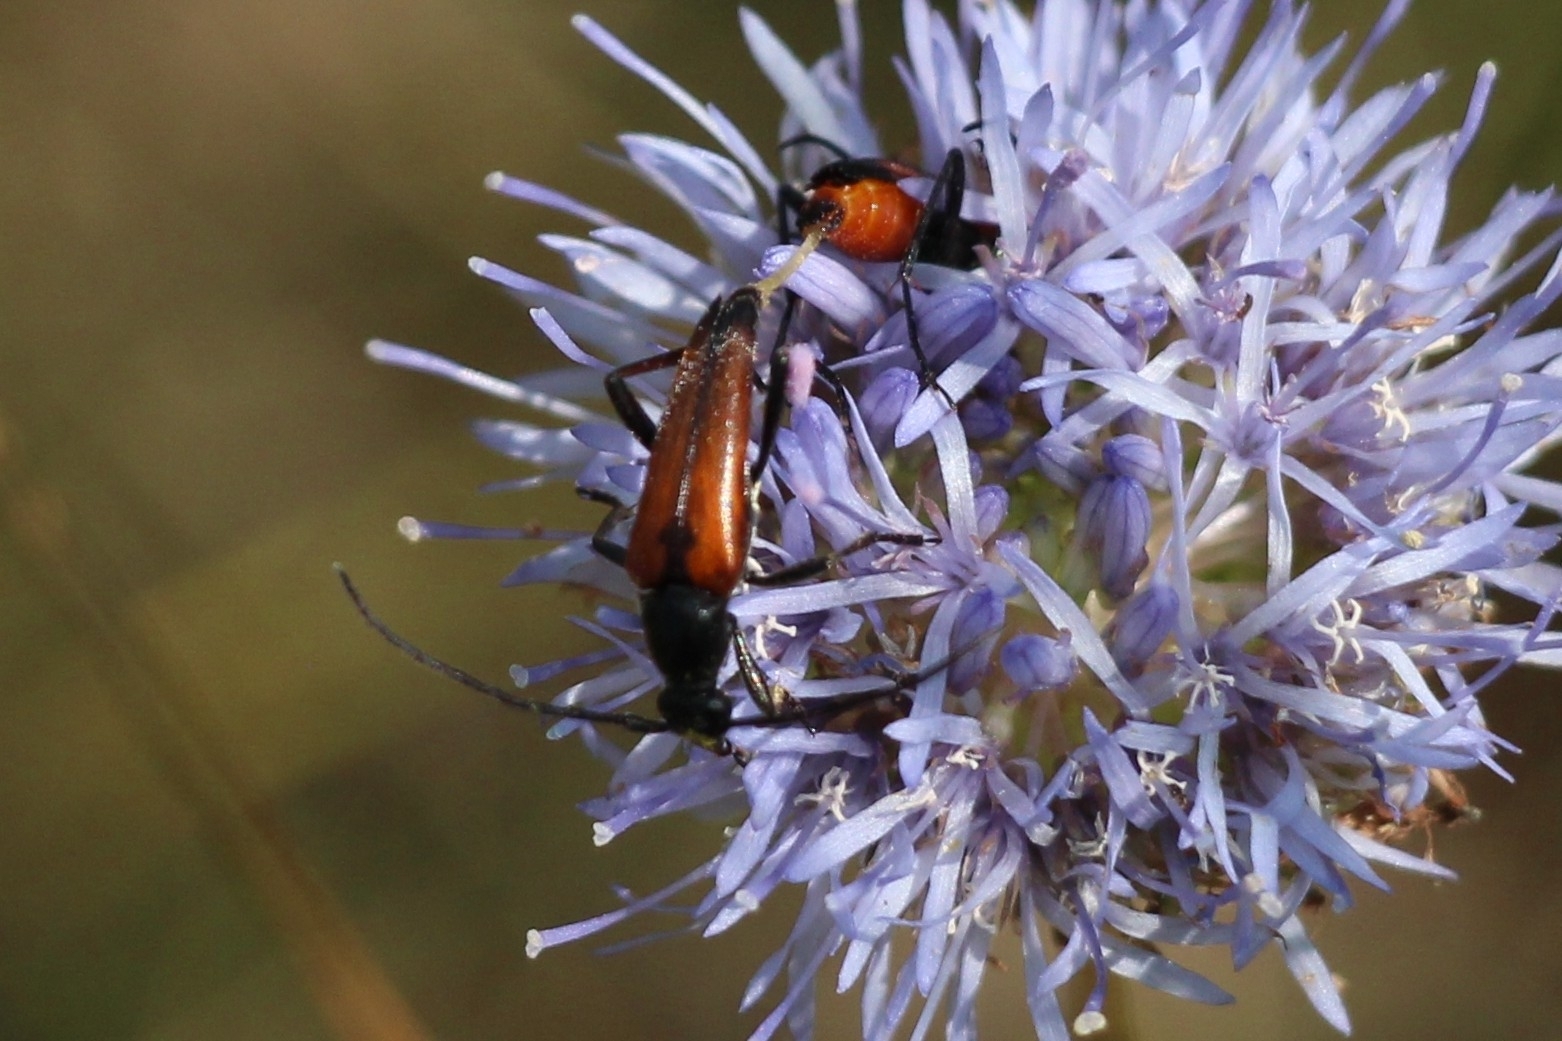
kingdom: Animalia
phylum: Arthropoda
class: Insecta
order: Coleoptera
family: Cerambycidae
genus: Stenurella
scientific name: Stenurella bifasciata
